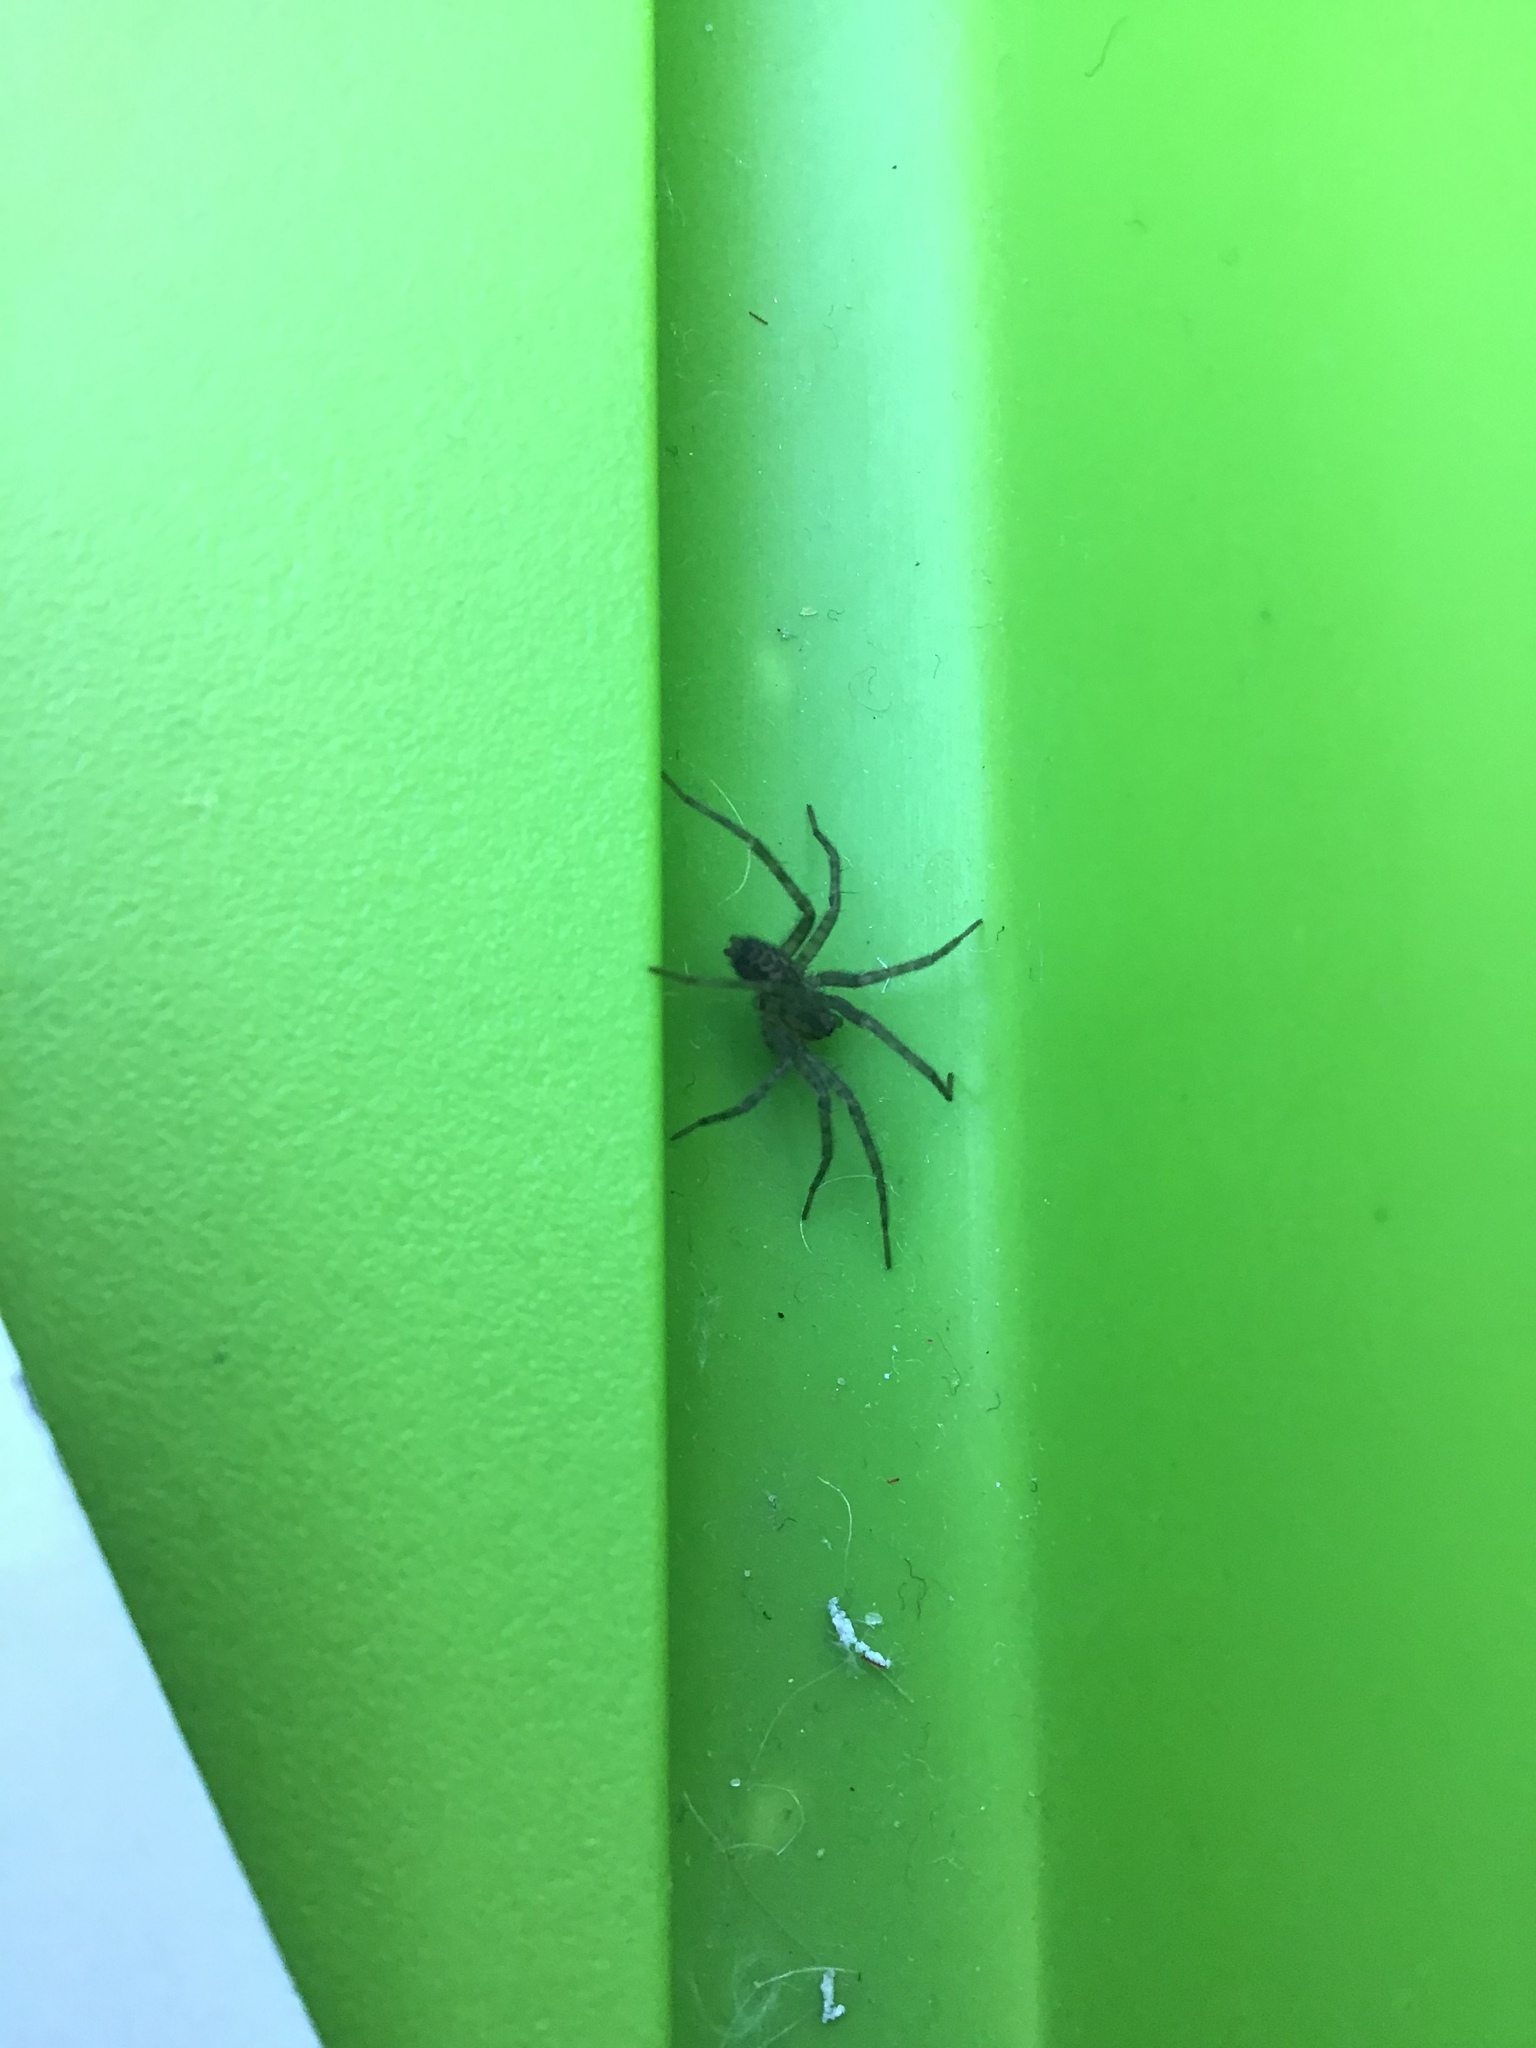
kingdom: Animalia
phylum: Arthropoda
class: Arachnida
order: Araneae
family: Agelenidae
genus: Tegenaria
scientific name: Tegenaria domestica
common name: Barn funnel weaver
